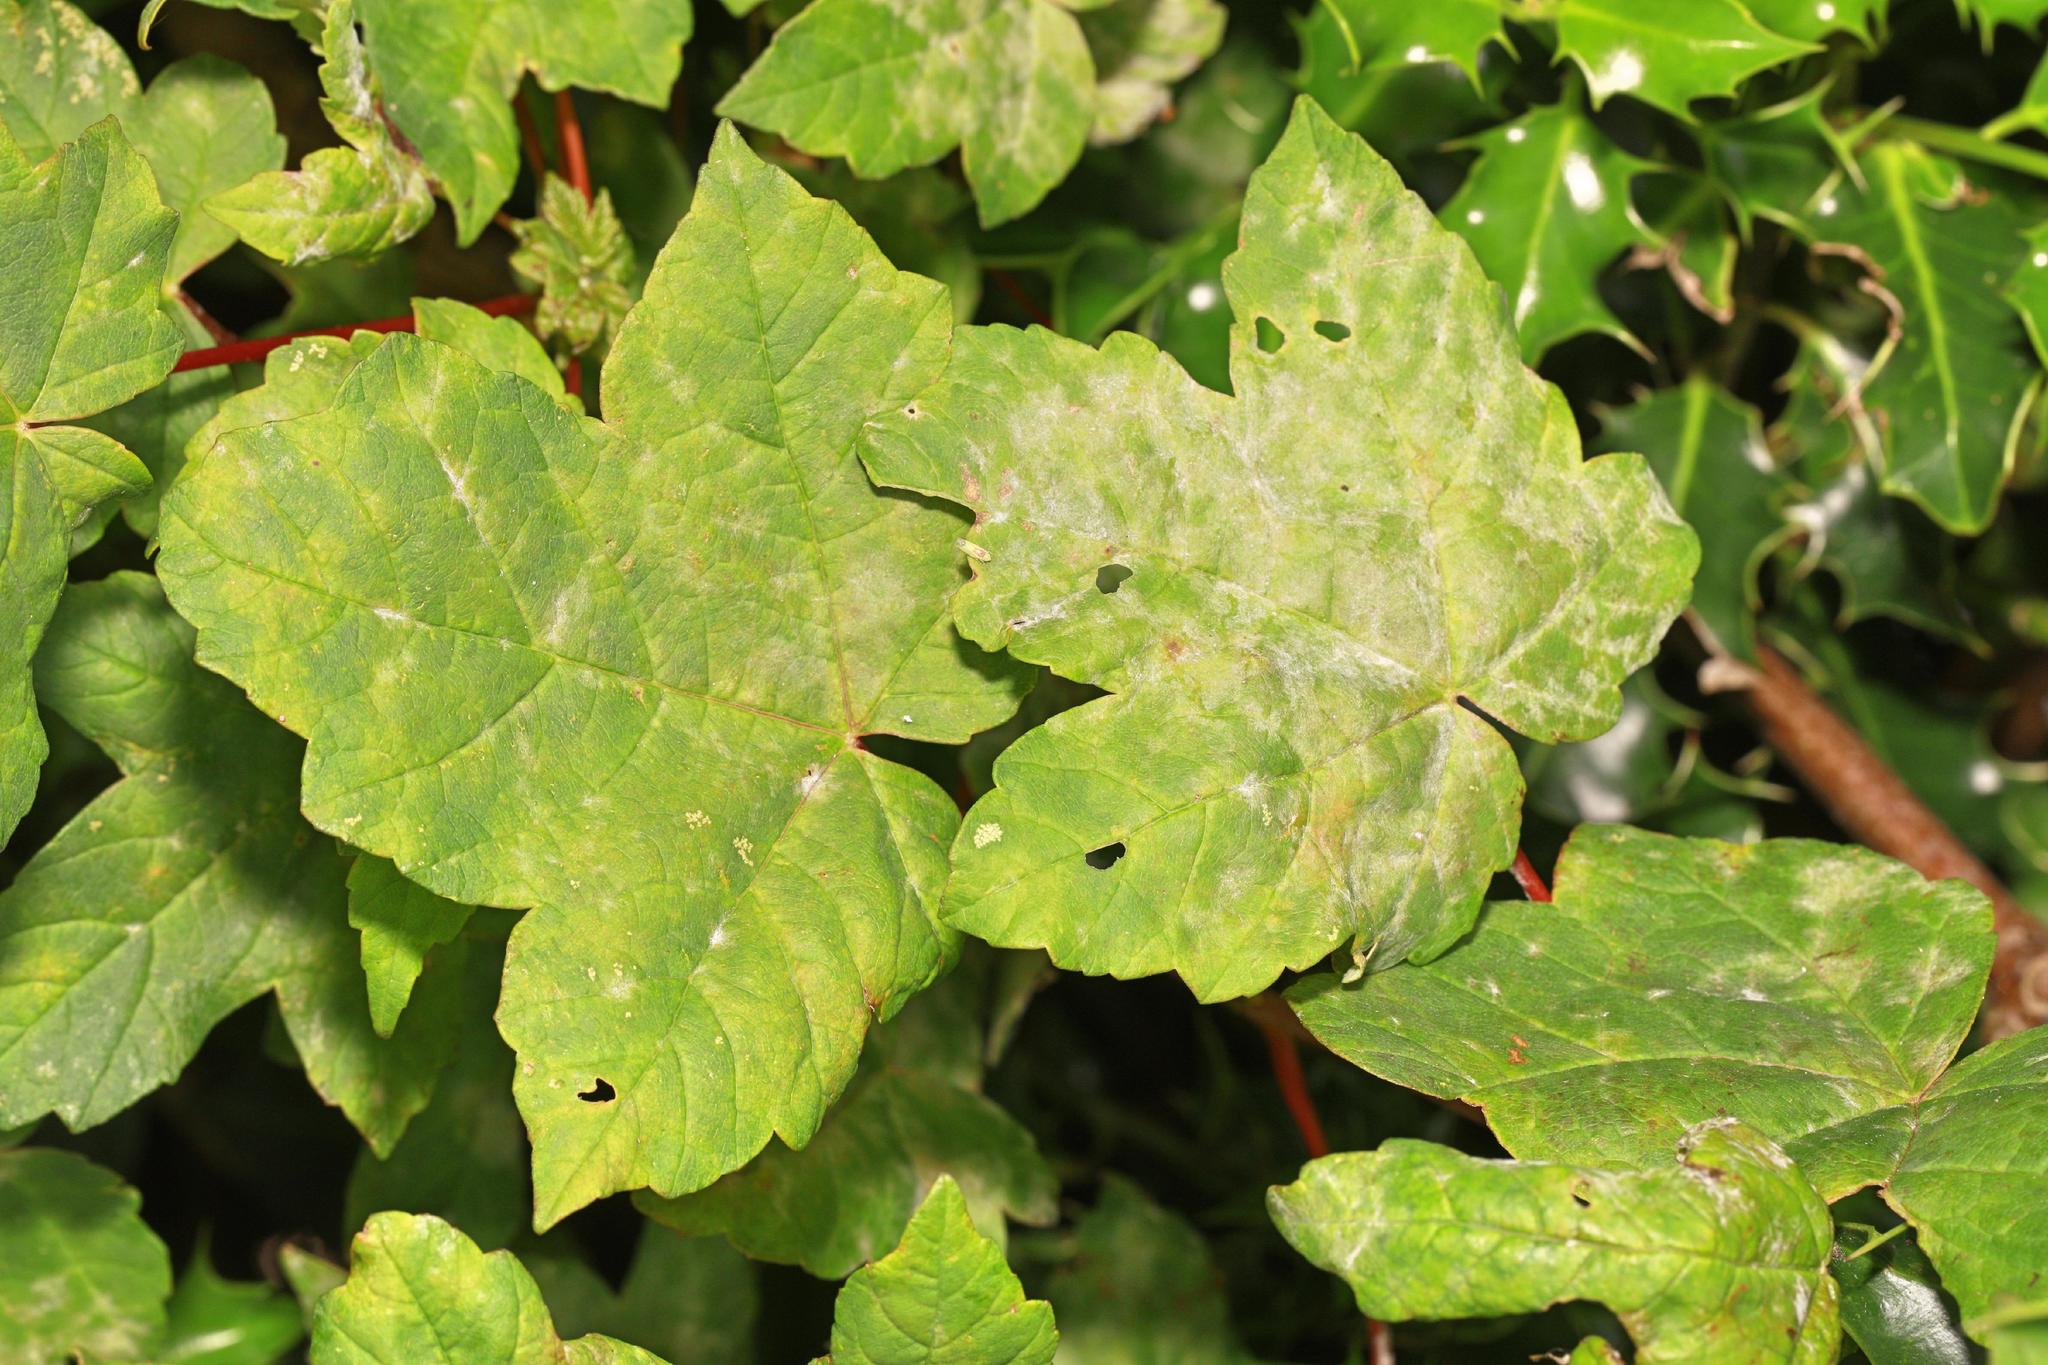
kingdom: Plantae
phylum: Tracheophyta
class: Magnoliopsida
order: Sapindales
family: Sapindaceae
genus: Acer
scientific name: Acer pseudoplatanus
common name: Sycamore
